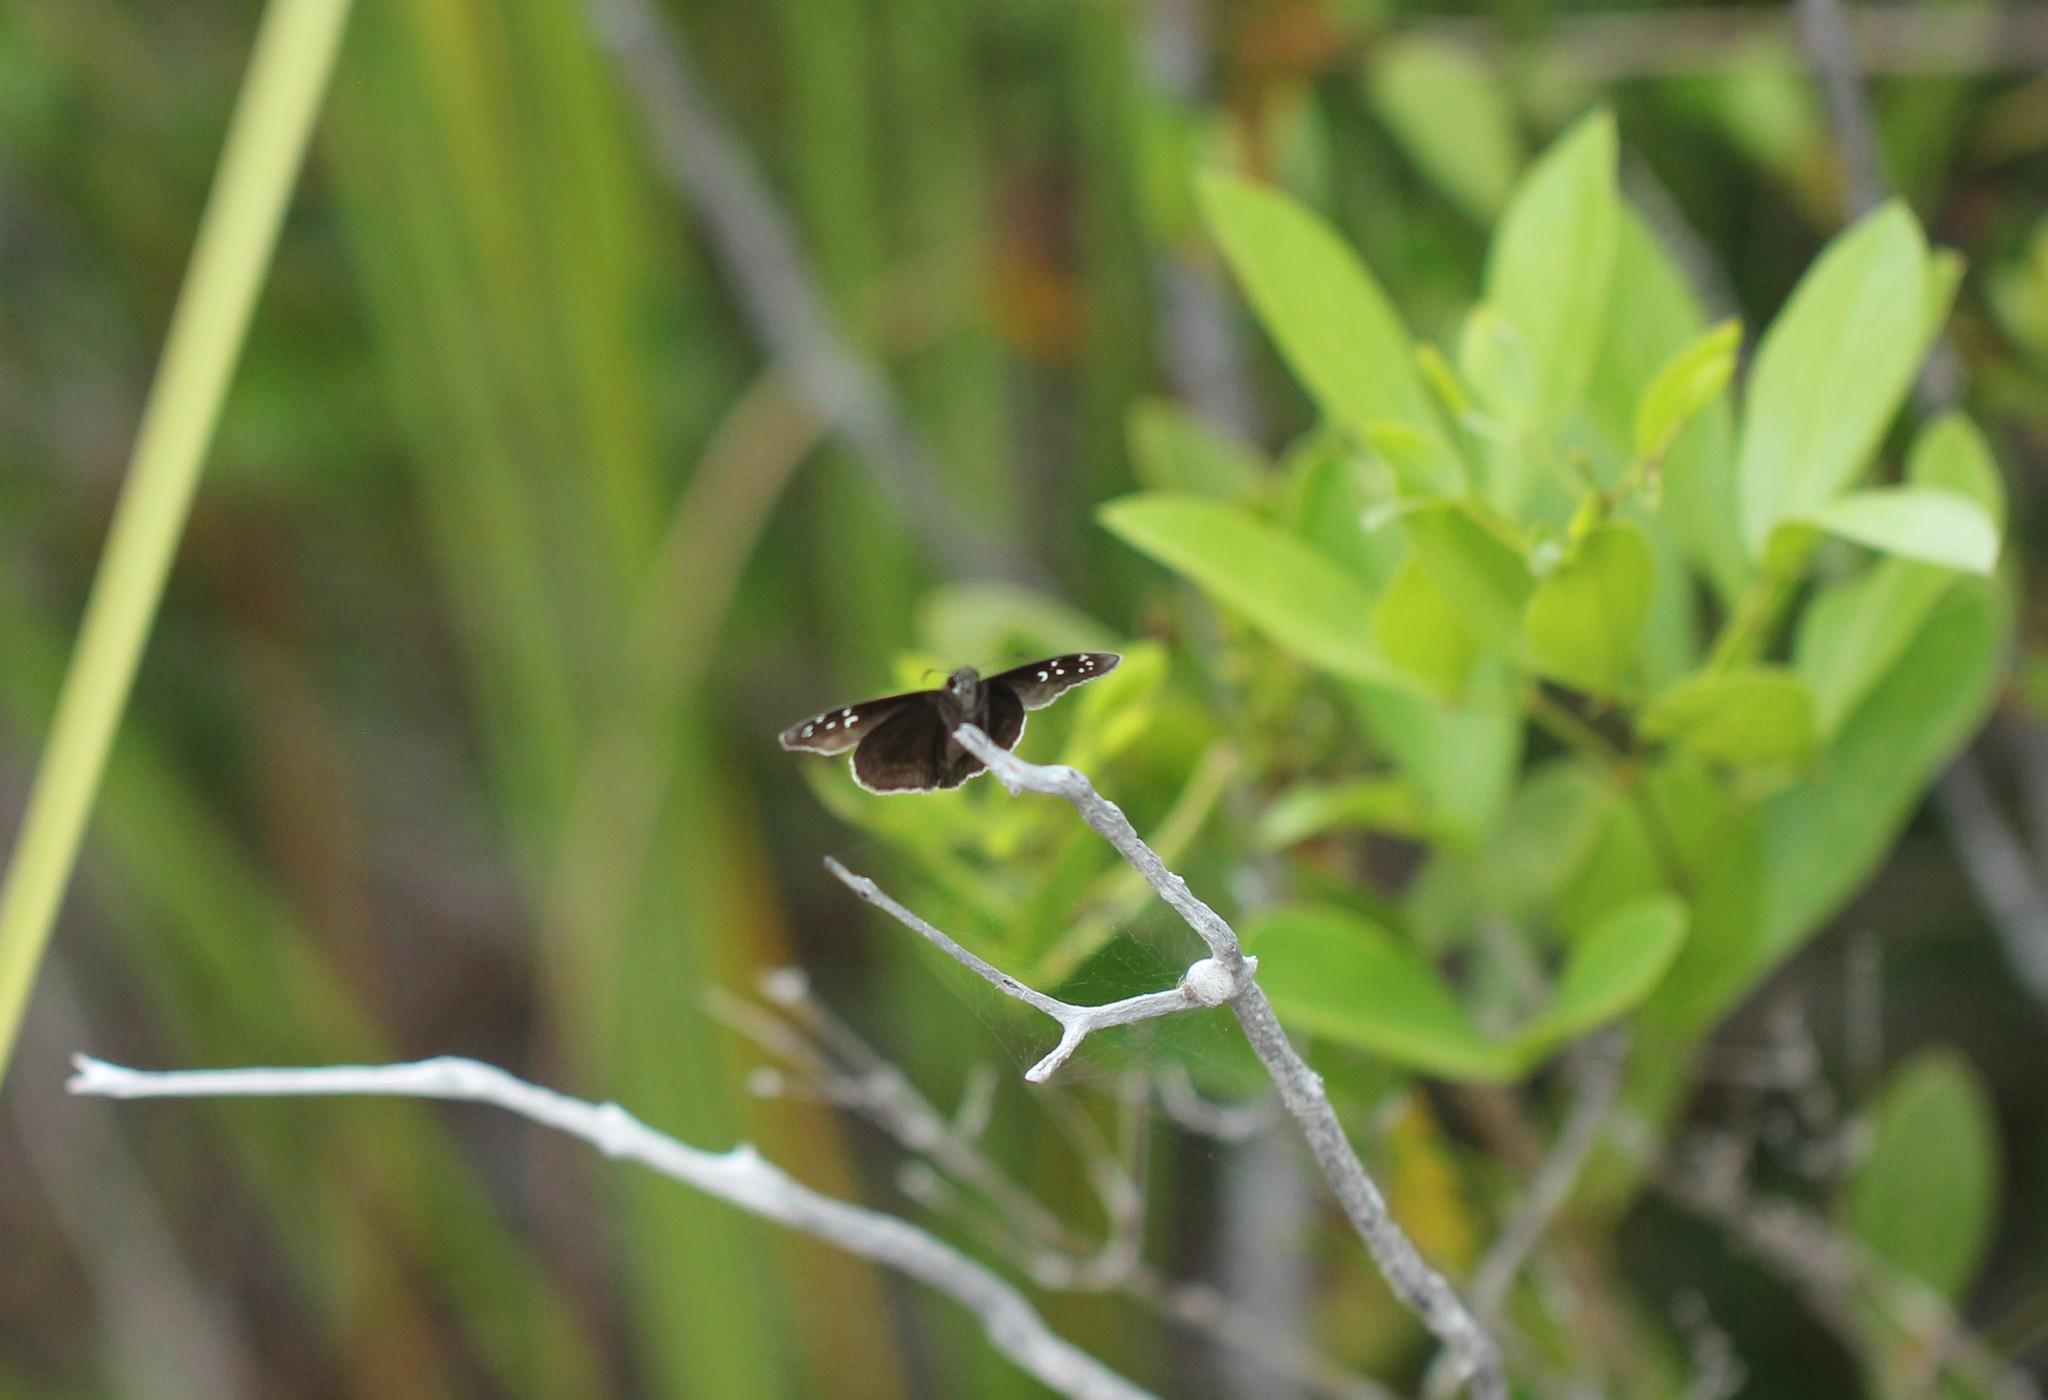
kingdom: Animalia
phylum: Arthropoda
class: Insecta
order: Lepidoptera
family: Hesperiidae
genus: Ephyriades
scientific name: Ephyriades brunnea
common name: Florida duskywing
